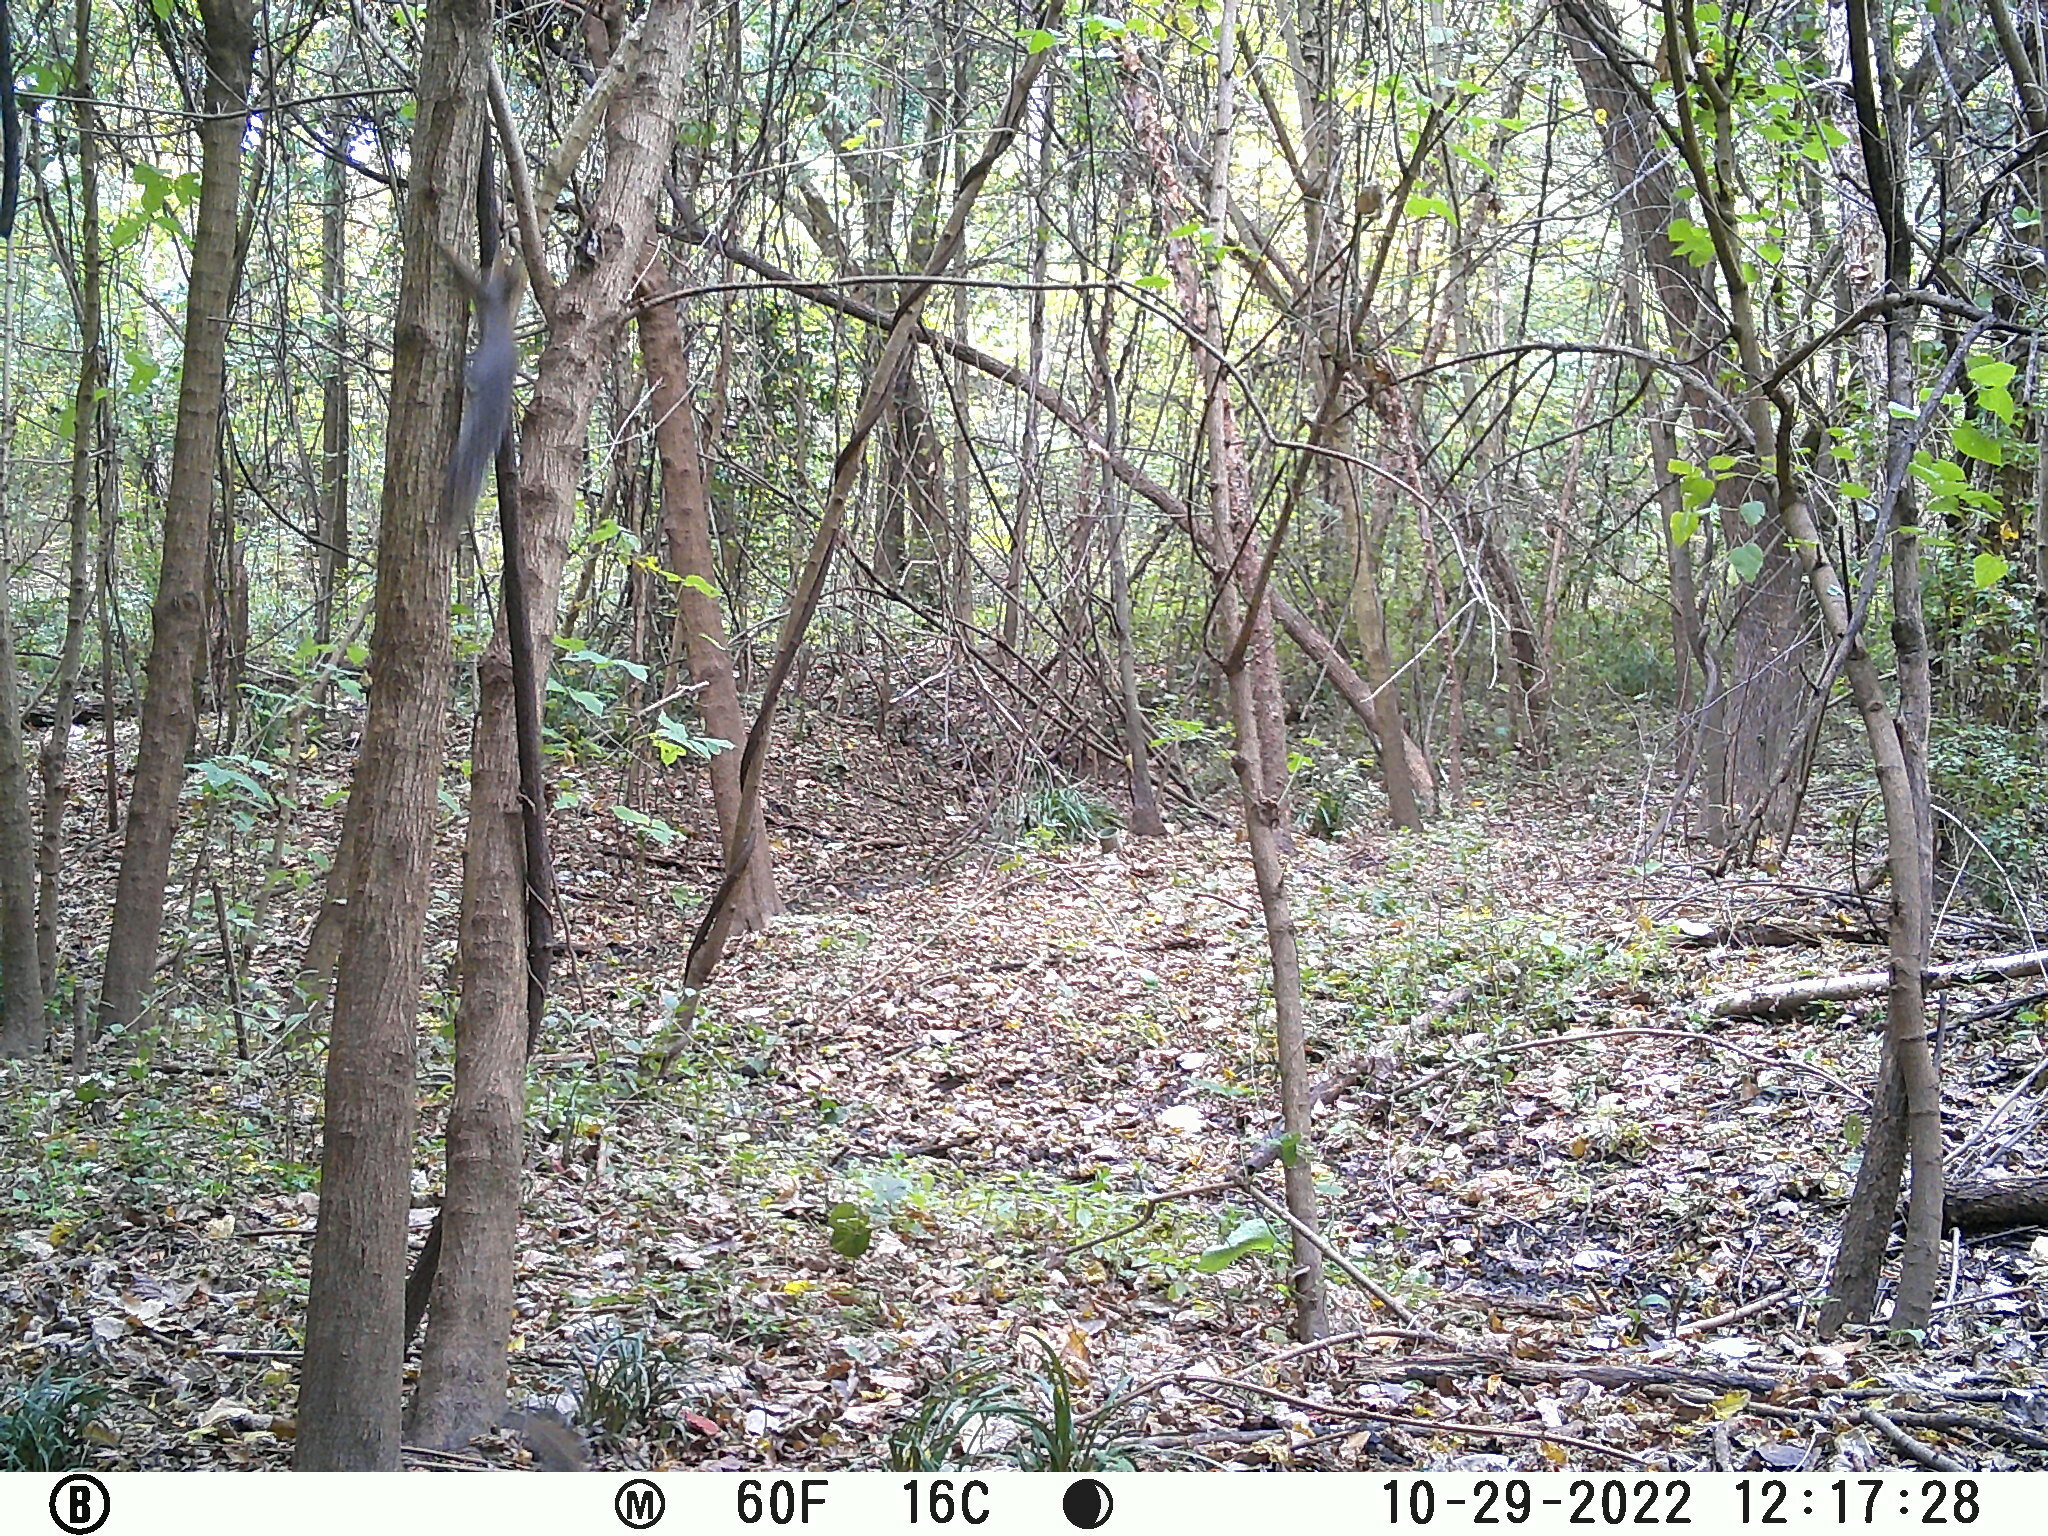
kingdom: Animalia
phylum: Chordata
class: Mammalia
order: Rodentia
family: Sciuridae
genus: Sciurus
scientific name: Sciurus carolinensis
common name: Eastern gray squirrel
